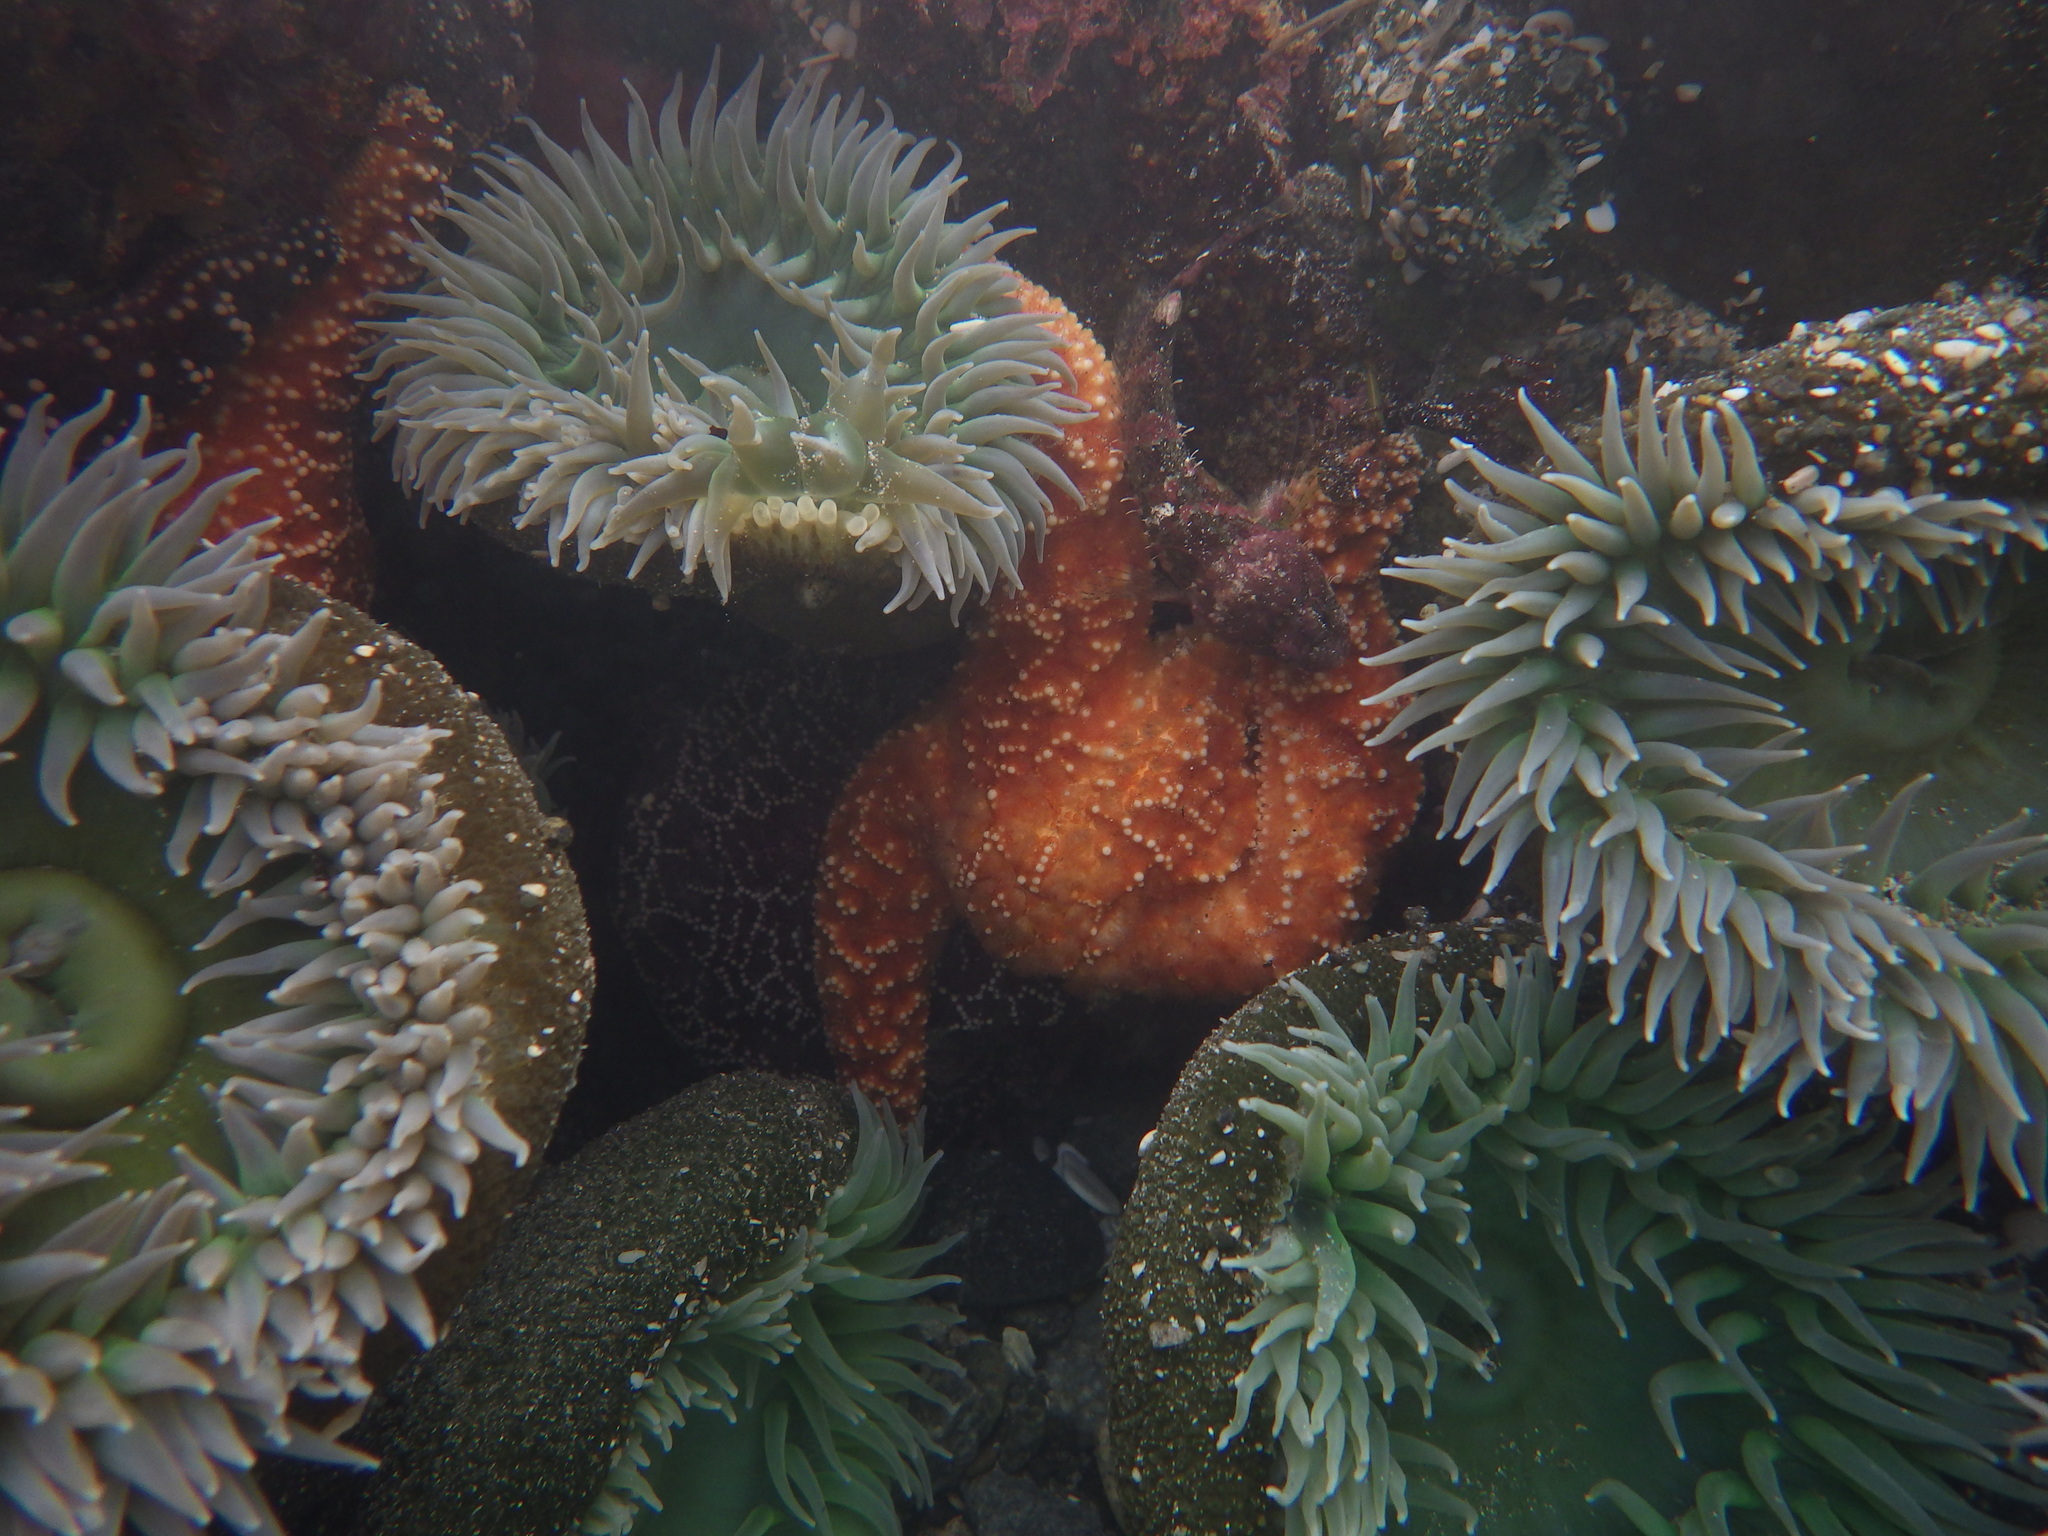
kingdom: Animalia
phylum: Cnidaria
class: Anthozoa
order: Actiniaria
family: Actiniidae
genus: Anthopleura
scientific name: Anthopleura xanthogrammica
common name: Giant green anemone
